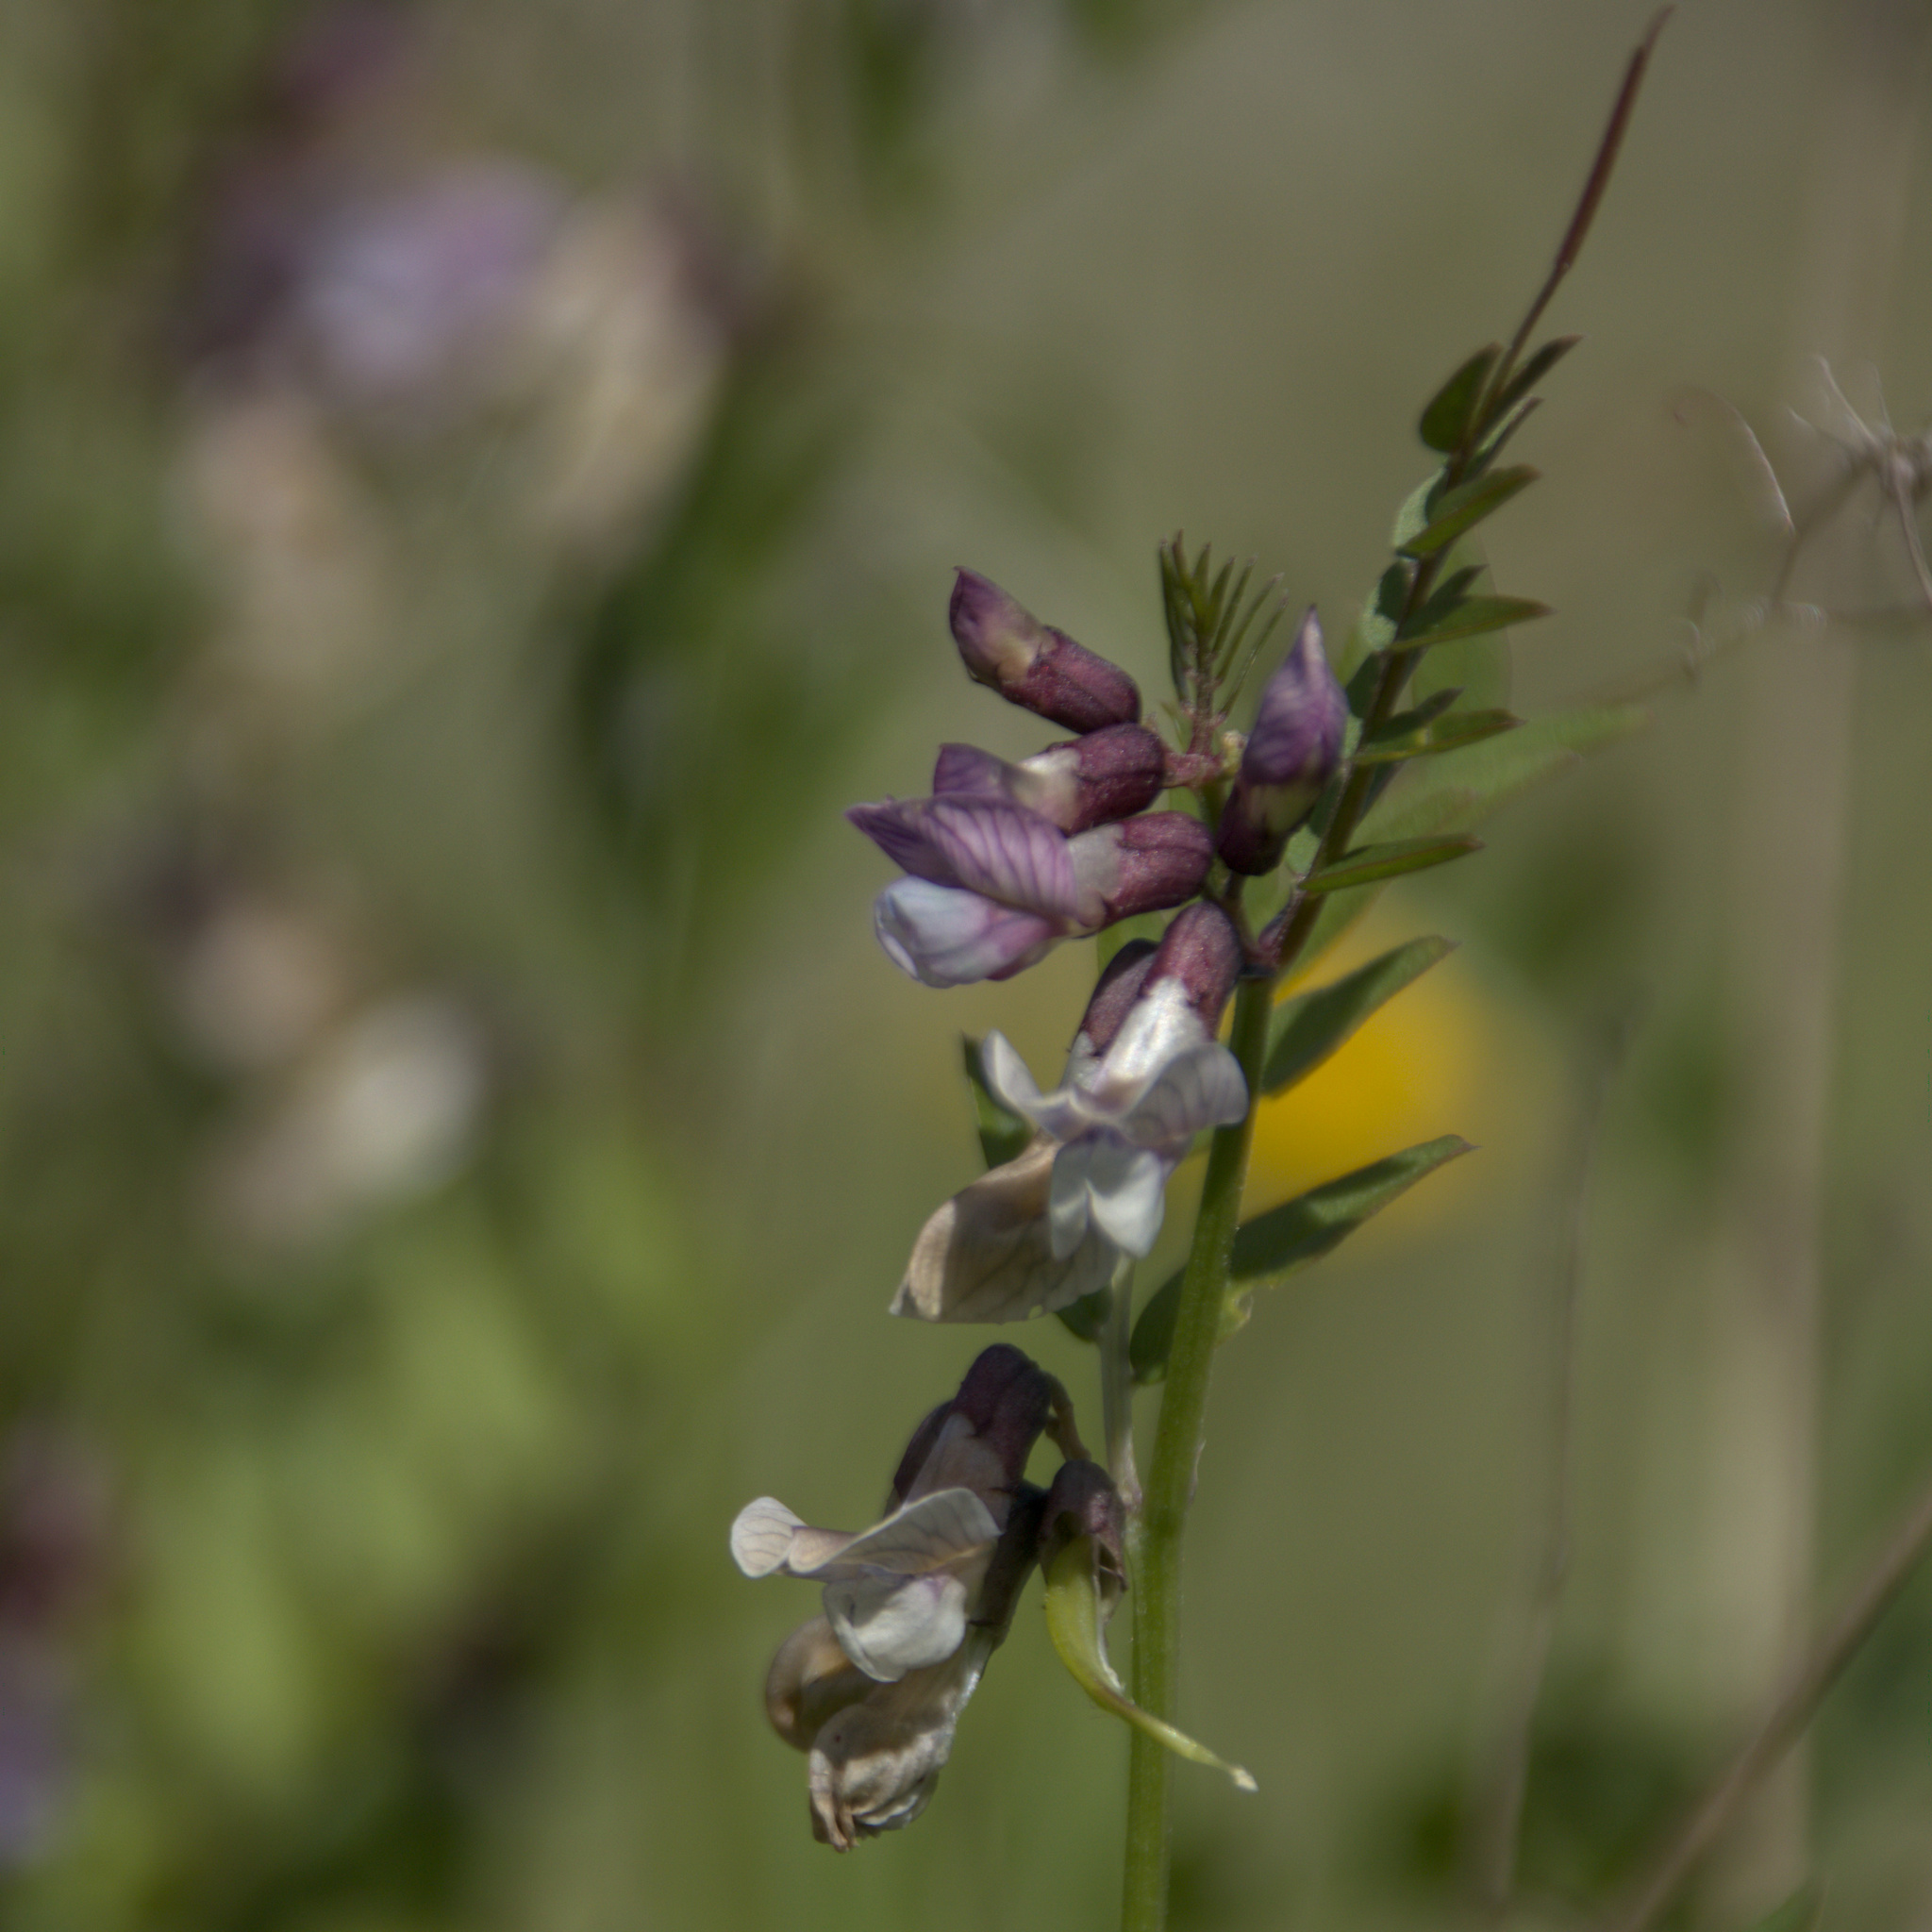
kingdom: Plantae
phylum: Tracheophyta
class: Magnoliopsida
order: Fabales
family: Fabaceae
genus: Vicia
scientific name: Vicia sepium
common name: Bush vetch
